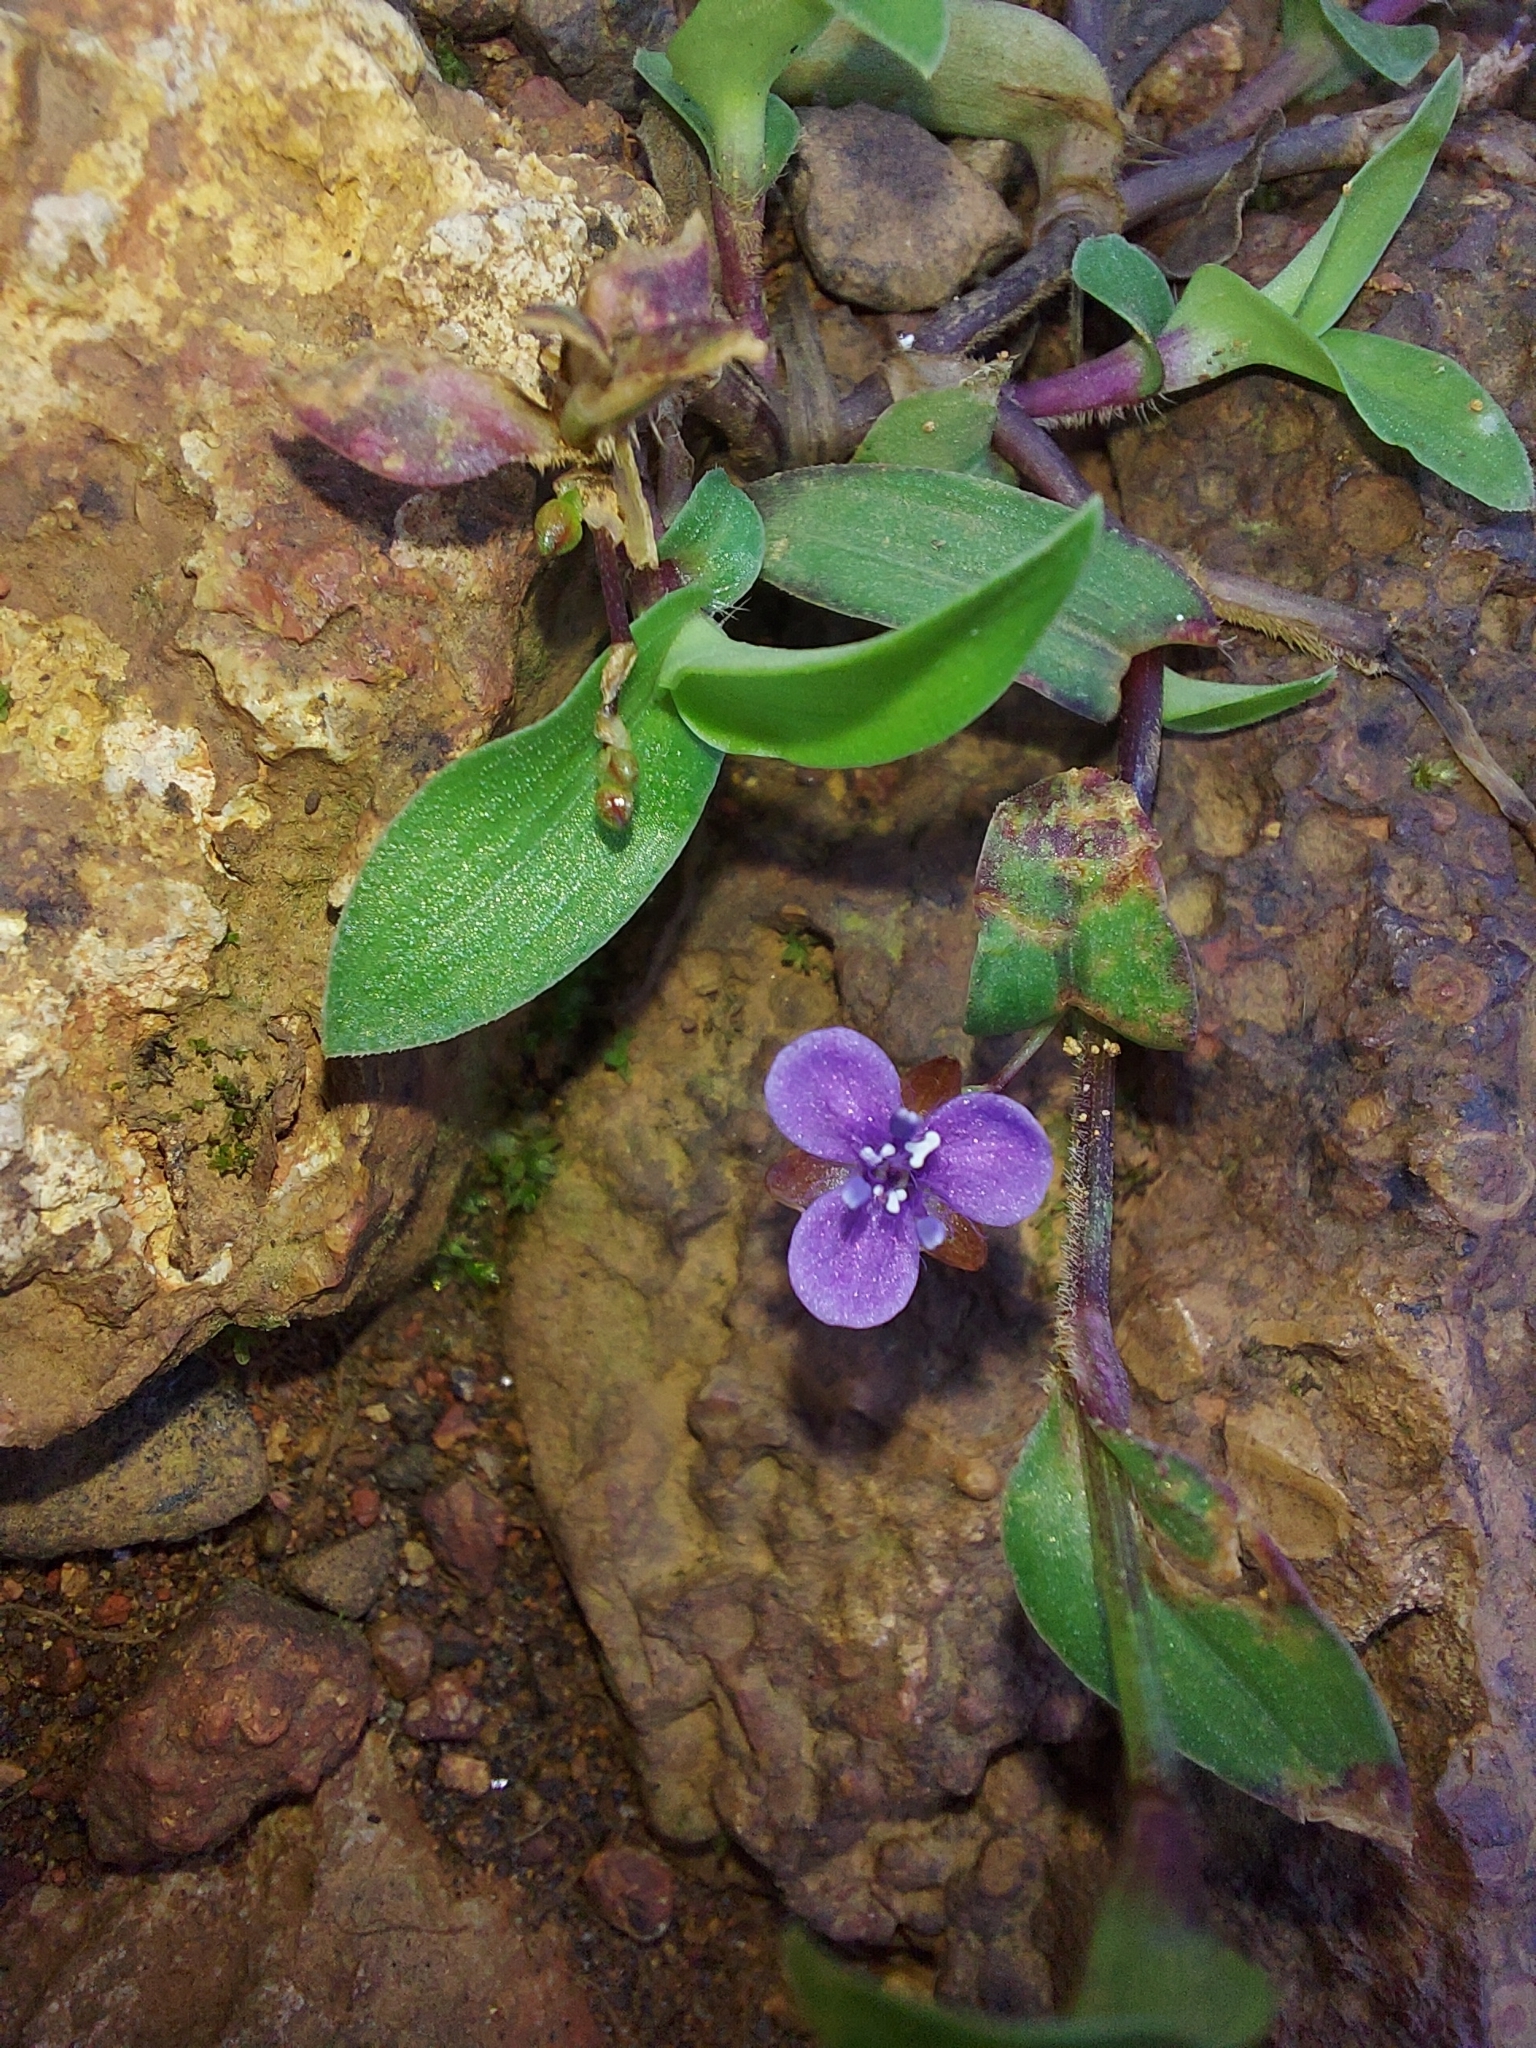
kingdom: Plantae
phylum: Tracheophyta
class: Liliopsida
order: Commelinales
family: Commelinaceae
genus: Murdannia
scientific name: Murdannia spirata
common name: Asiatic dewflower
